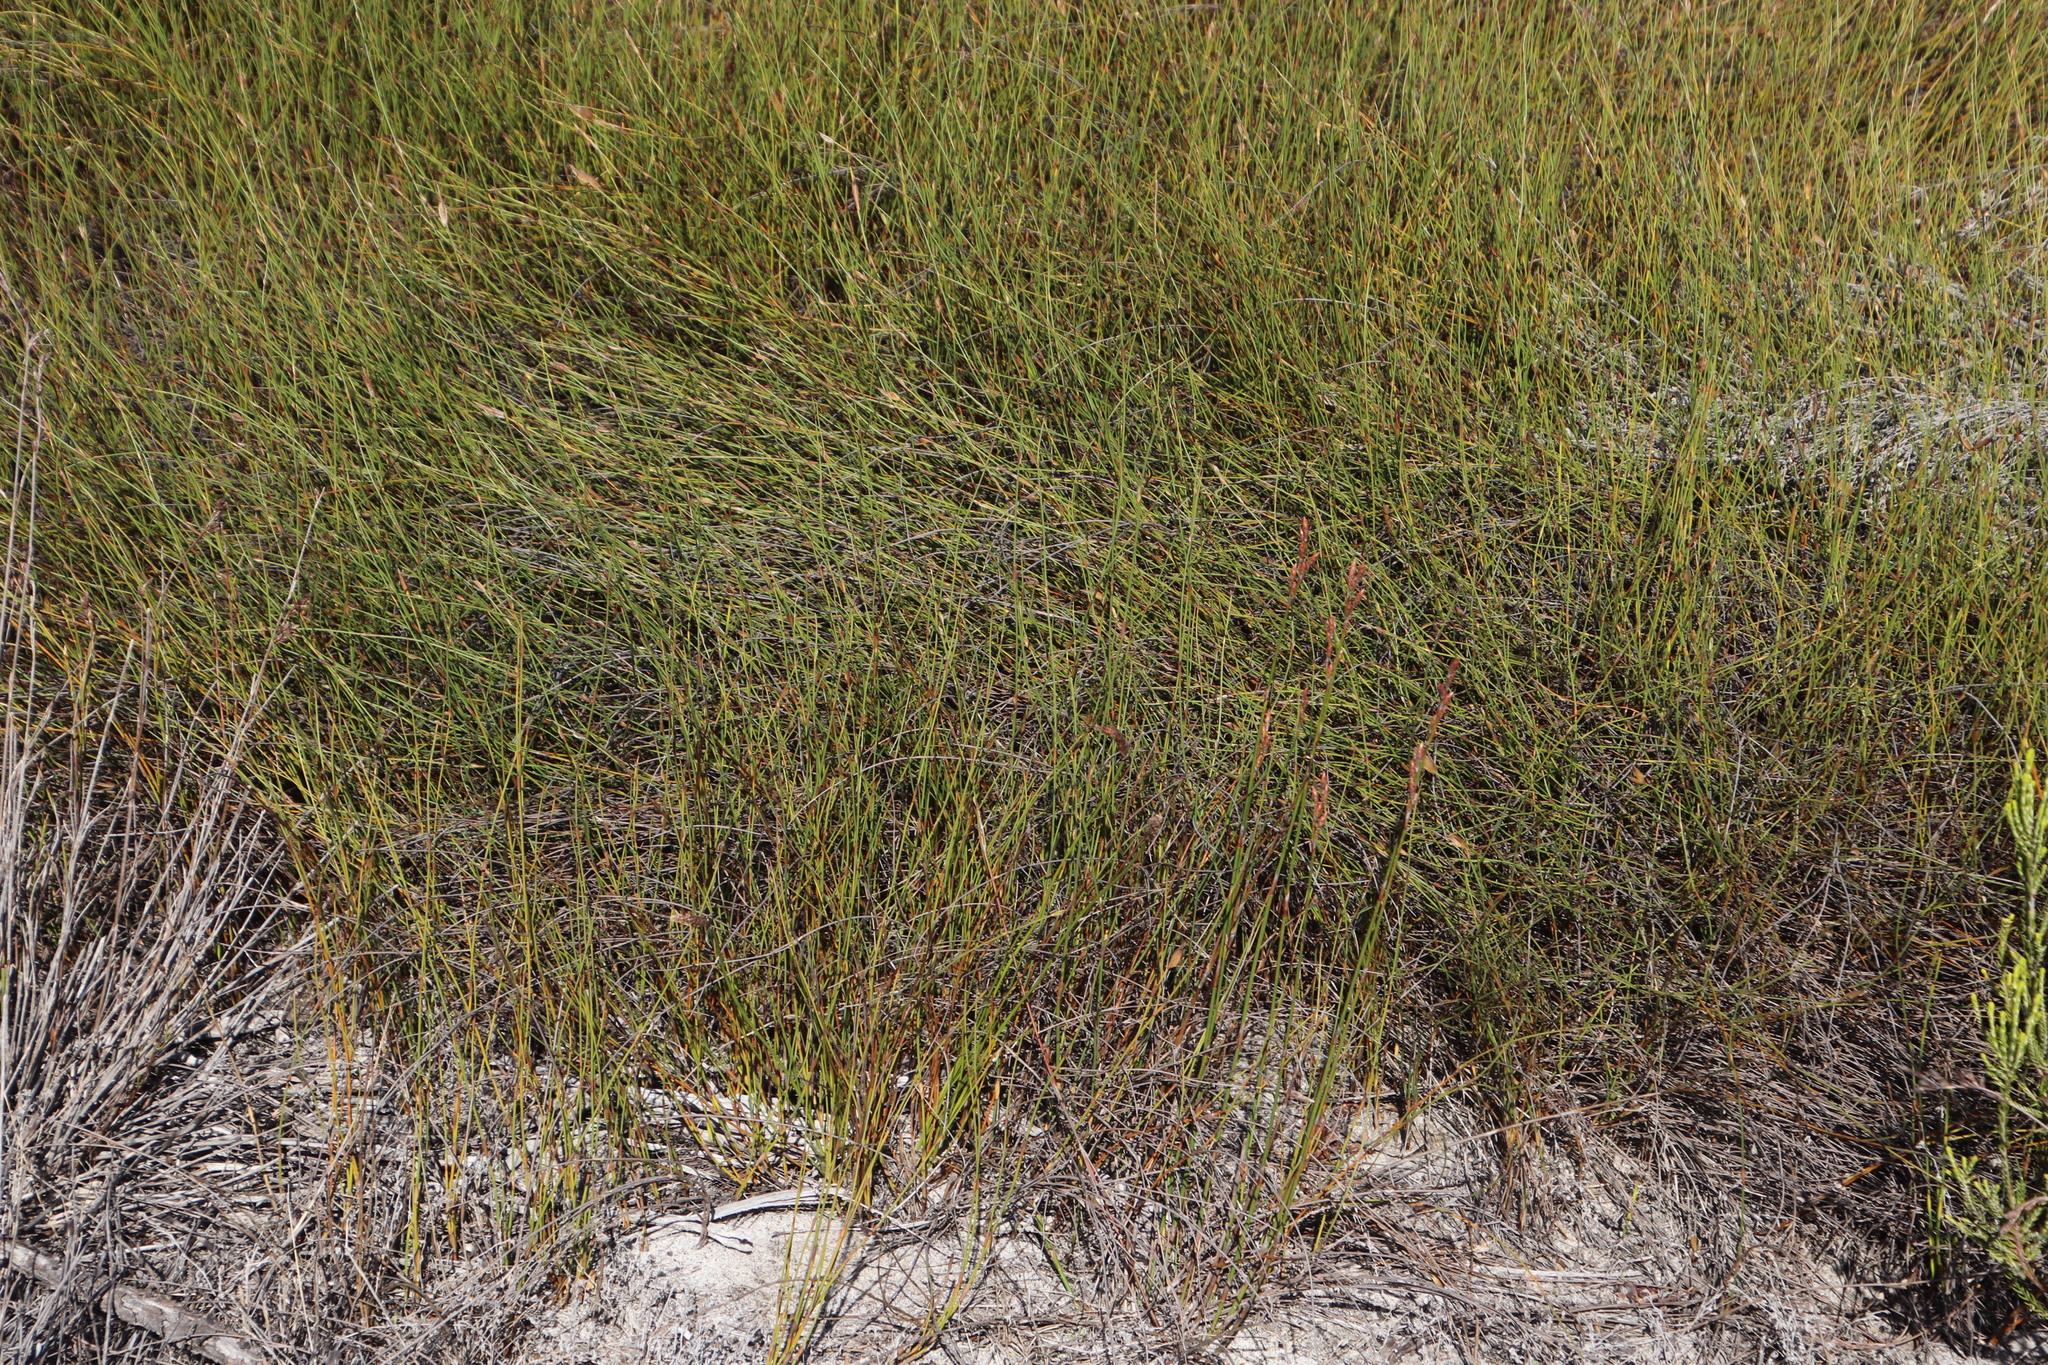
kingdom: Plantae
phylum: Tracheophyta
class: Liliopsida
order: Poales
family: Restionaceae
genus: Willdenowia
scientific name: Willdenowia sulcata
